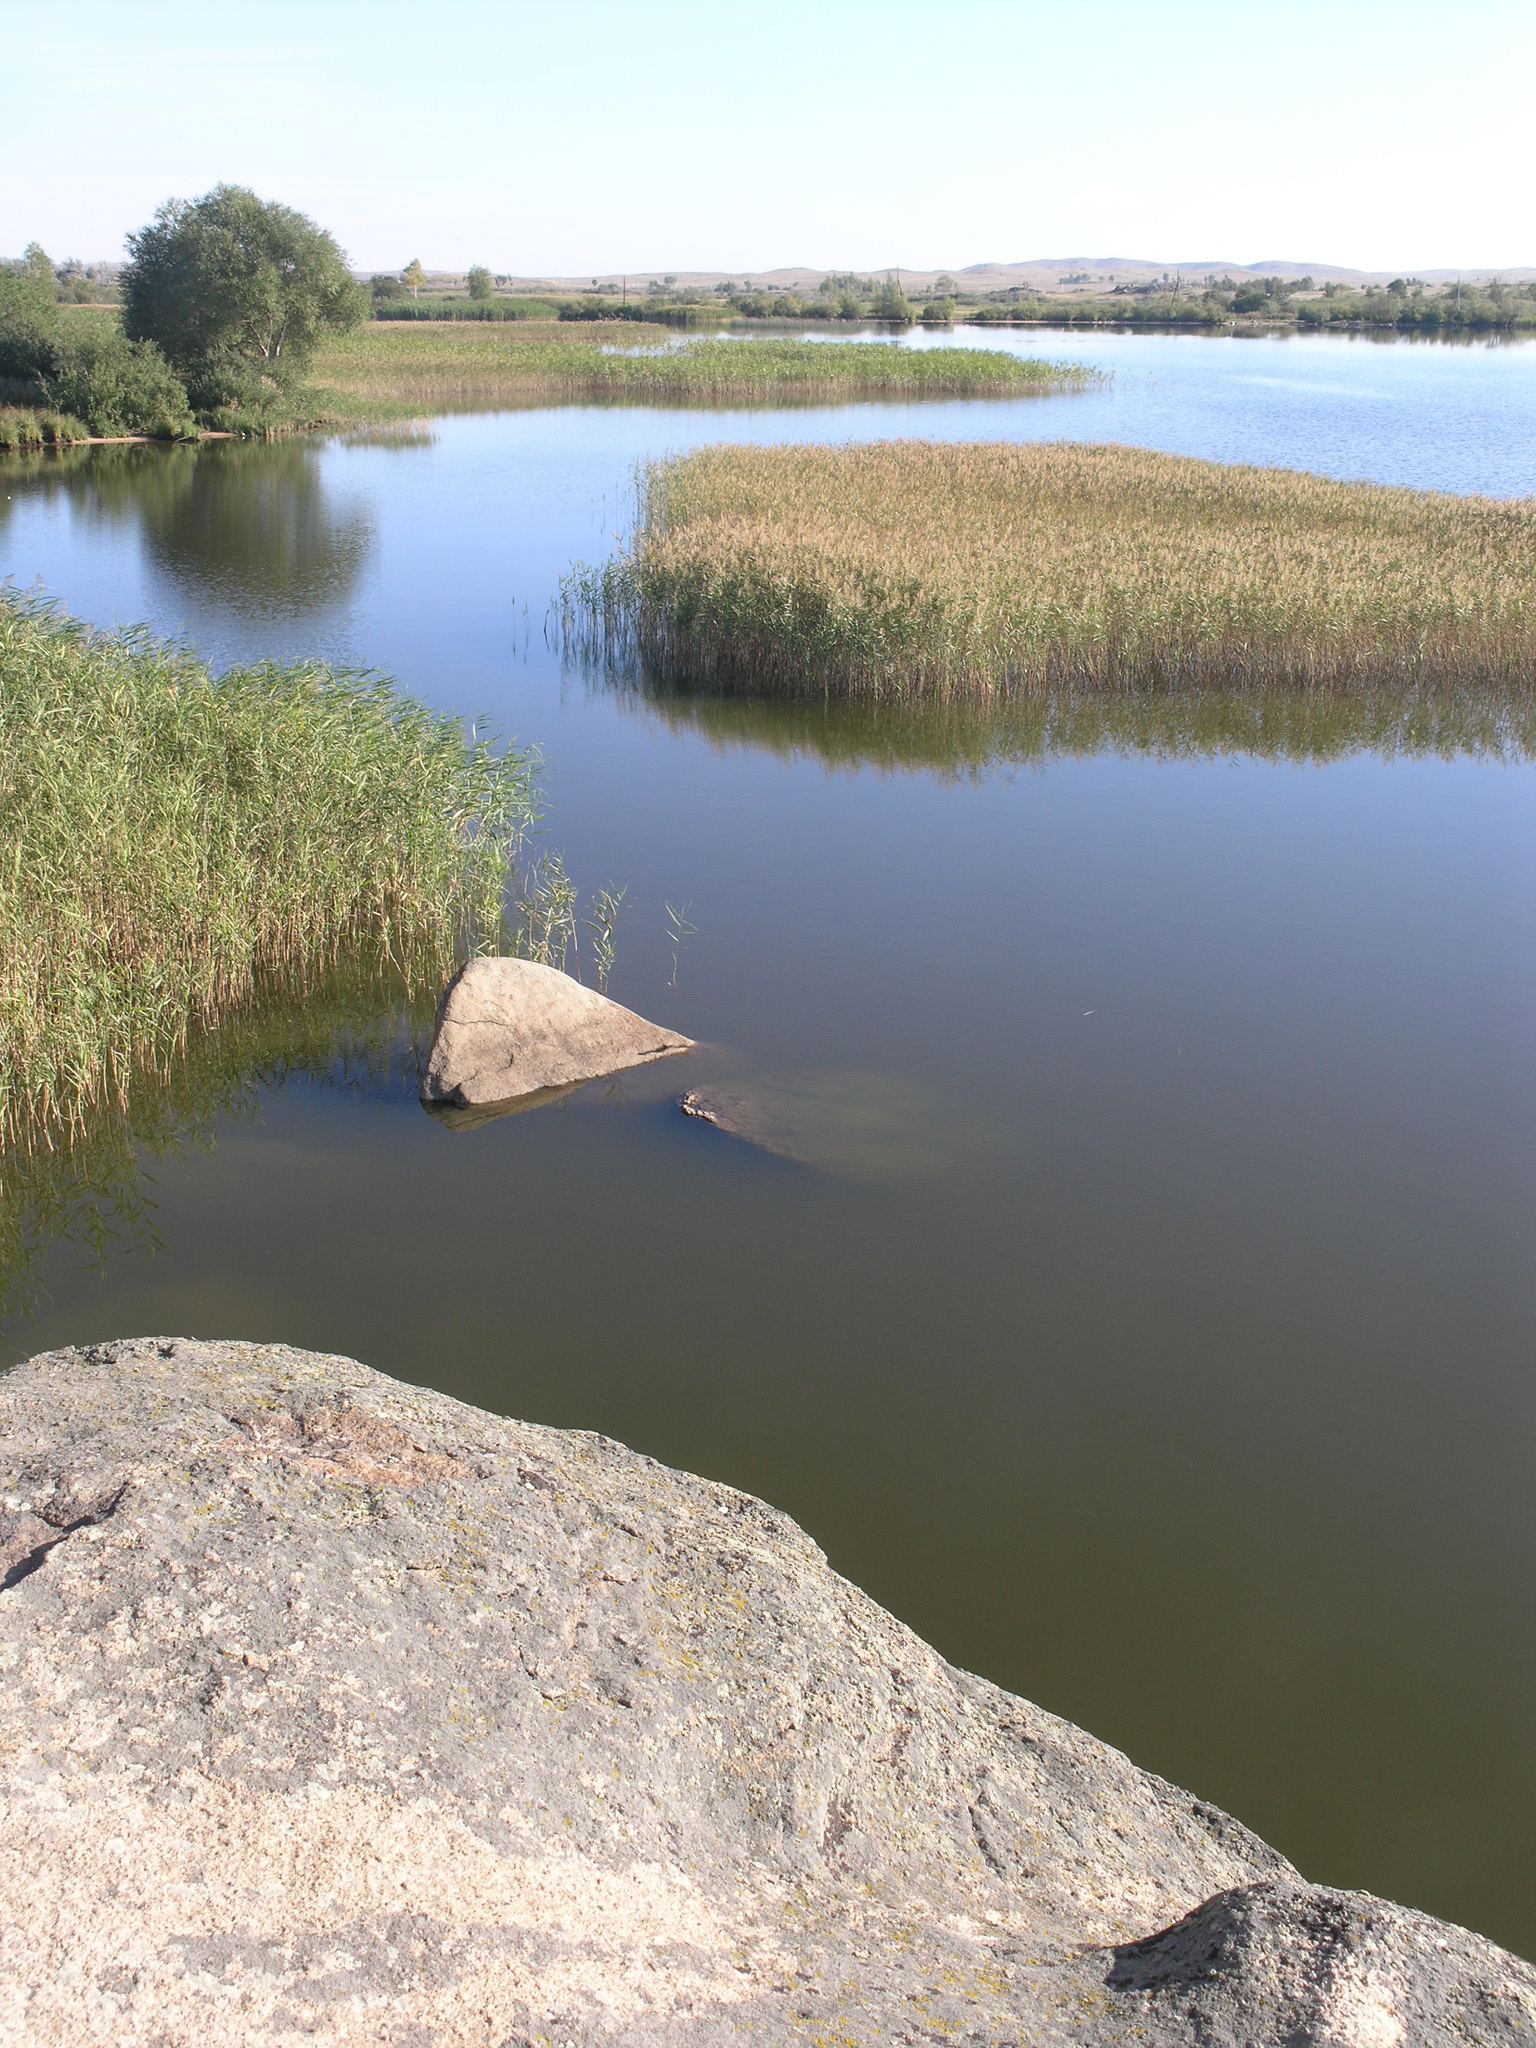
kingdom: Plantae
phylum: Tracheophyta
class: Liliopsida
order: Poales
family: Poaceae
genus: Phragmites
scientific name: Phragmites australis
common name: Common reed
